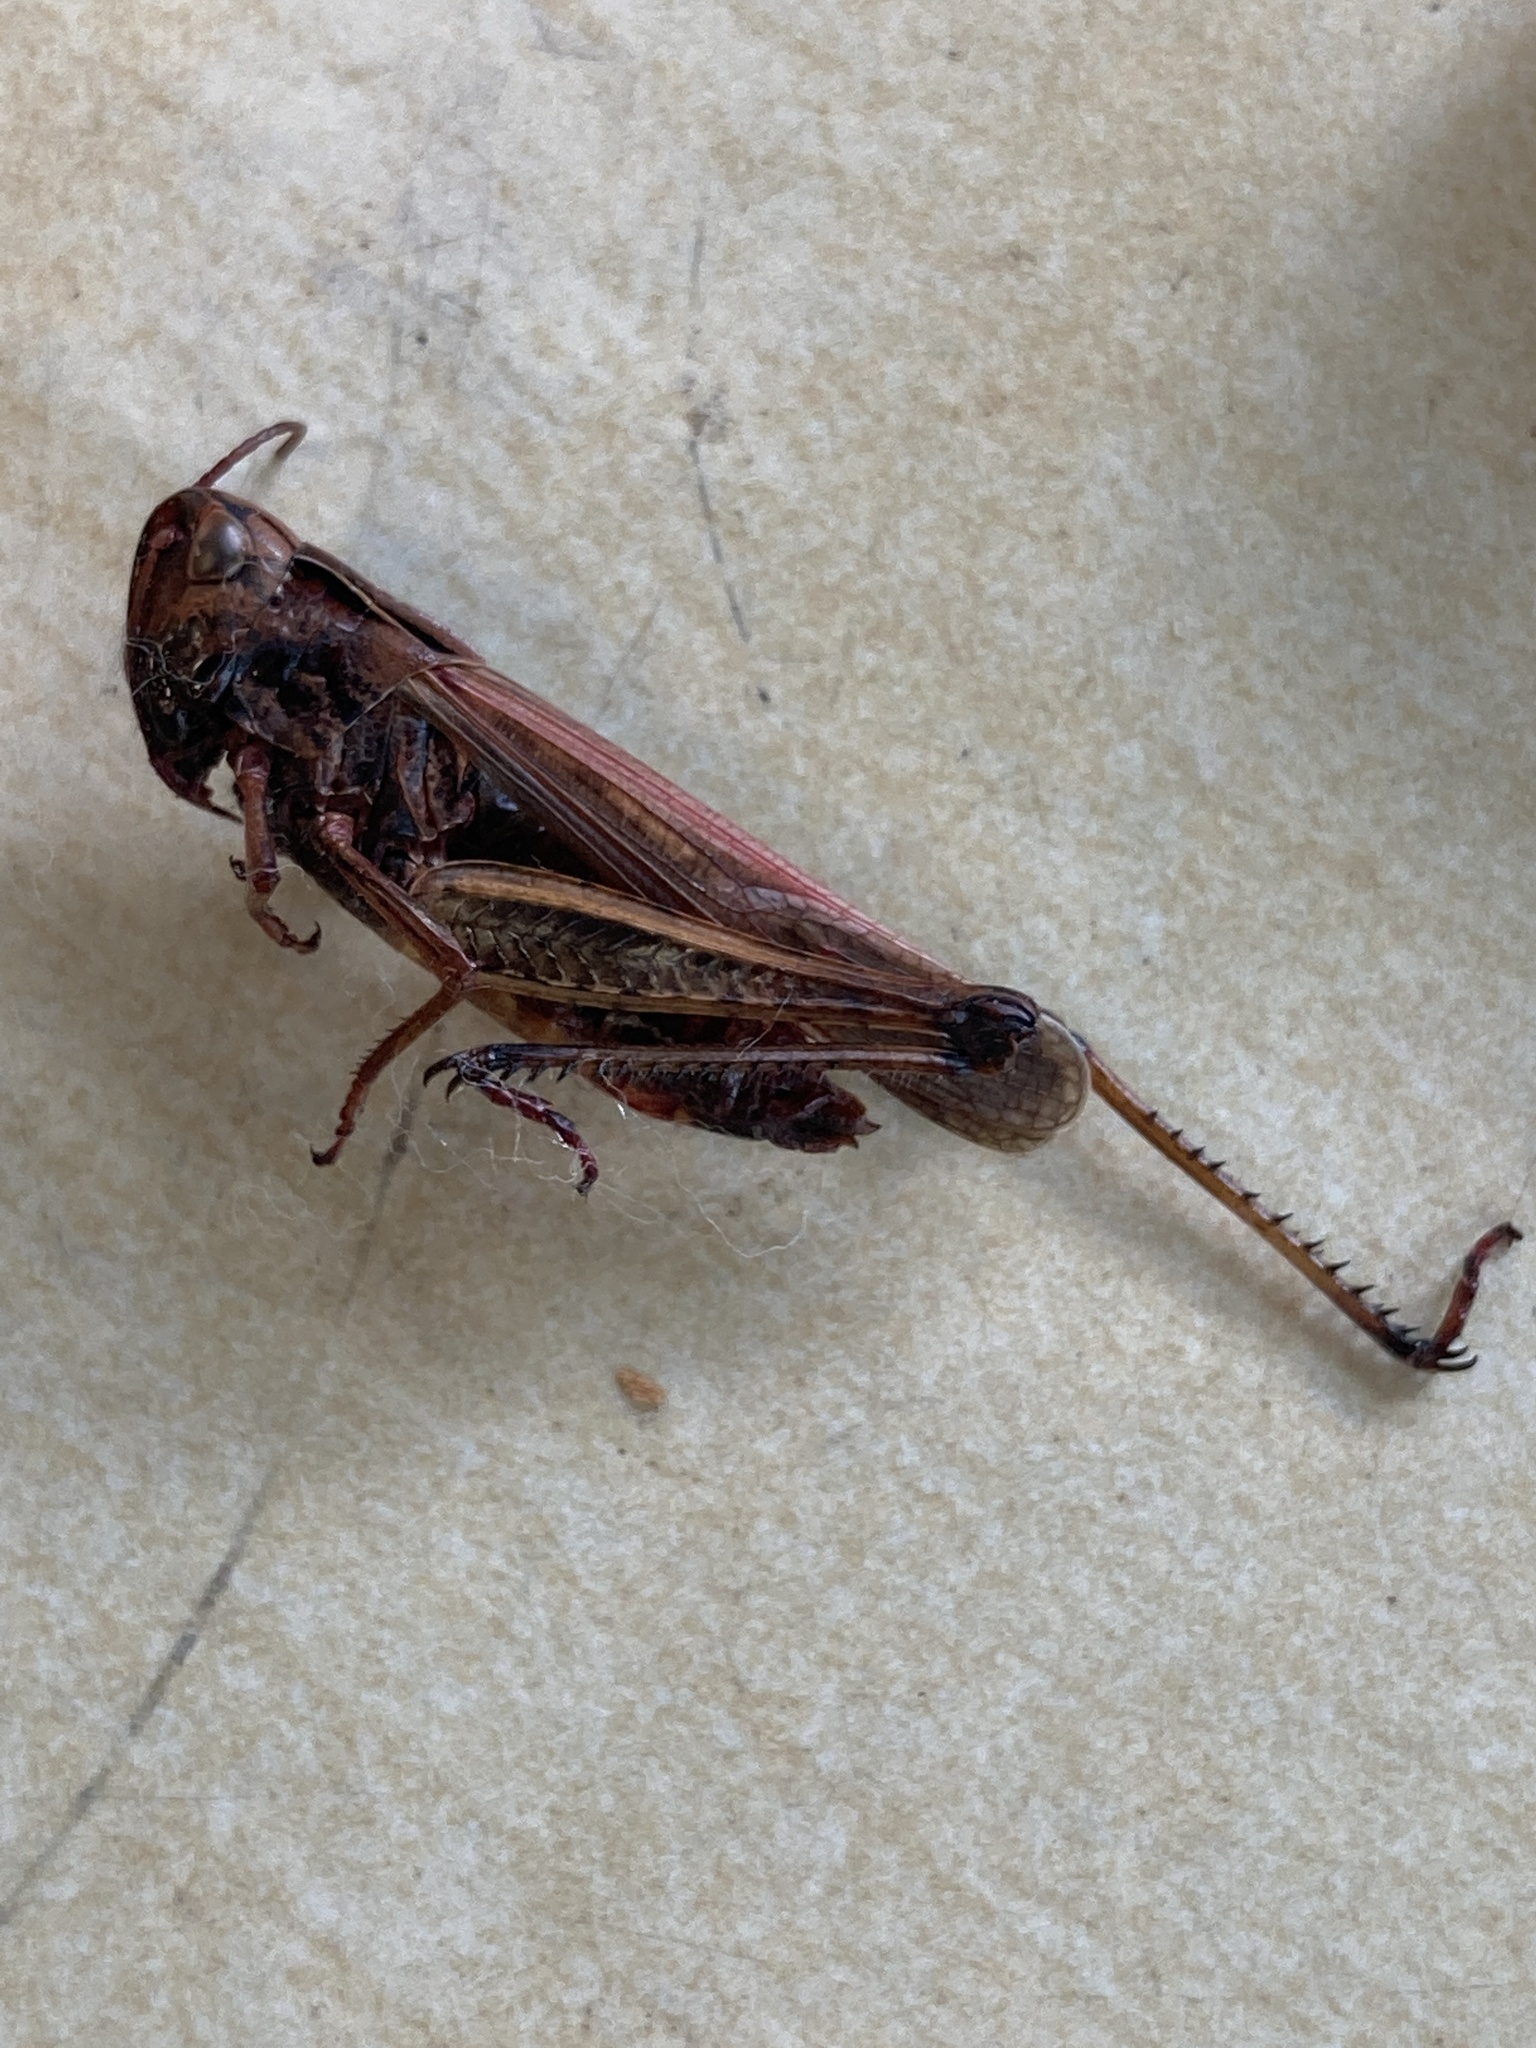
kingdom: Animalia
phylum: Arthropoda
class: Insecta
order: Orthoptera
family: Acrididae
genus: Omocestus
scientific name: Omocestus viridulus
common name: Common green grasshopper
